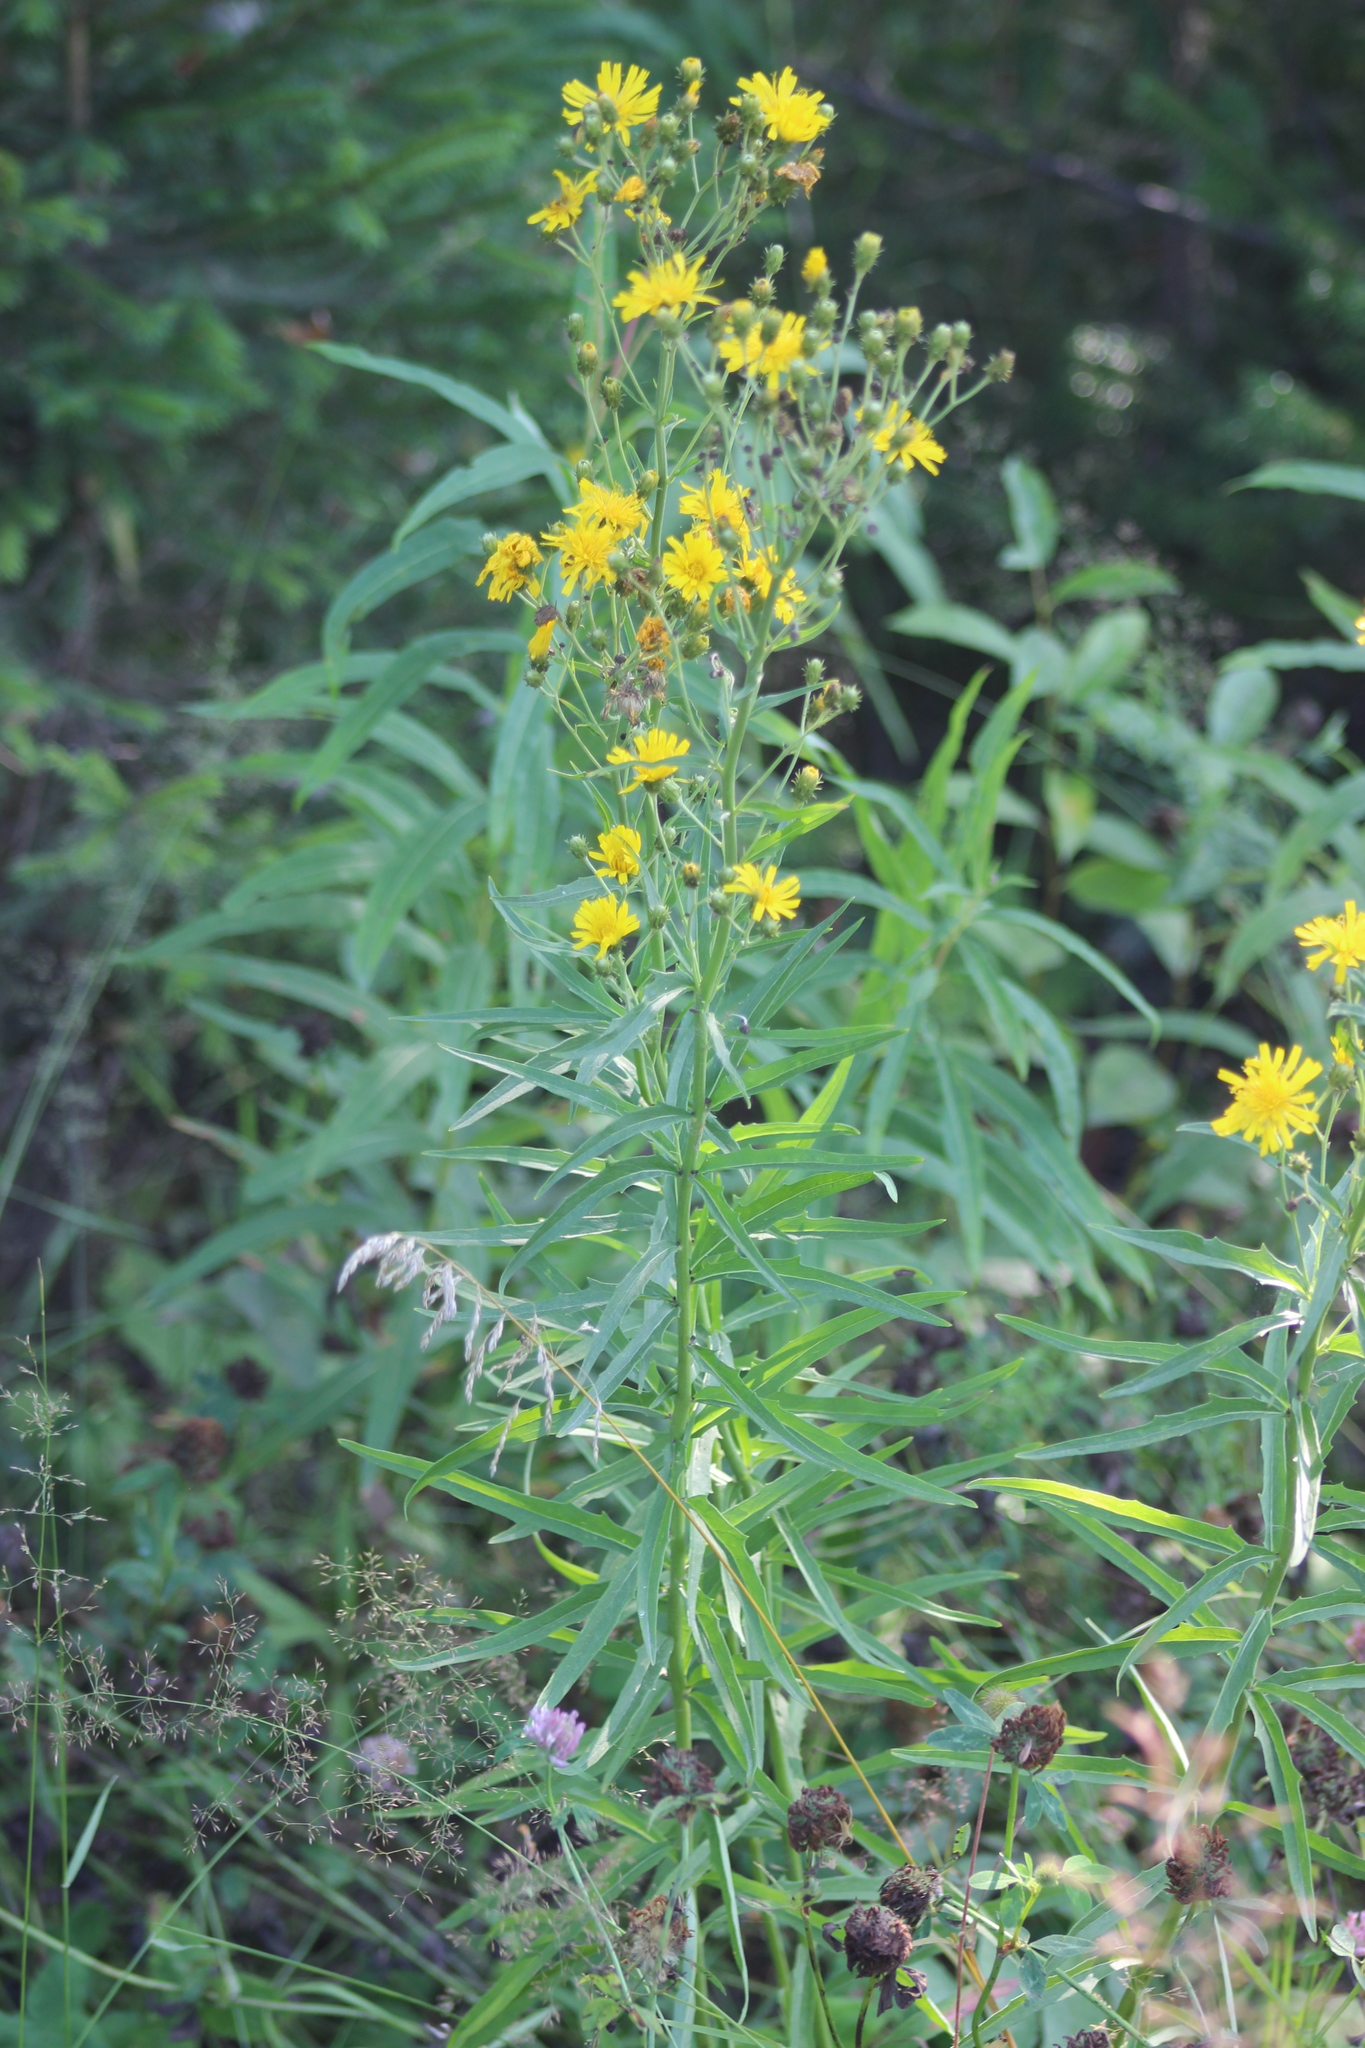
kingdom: Plantae
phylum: Tracheophyta
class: Magnoliopsida
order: Asterales
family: Asteraceae
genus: Hieracium
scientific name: Hieracium umbellatum
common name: Northern hawkweed
